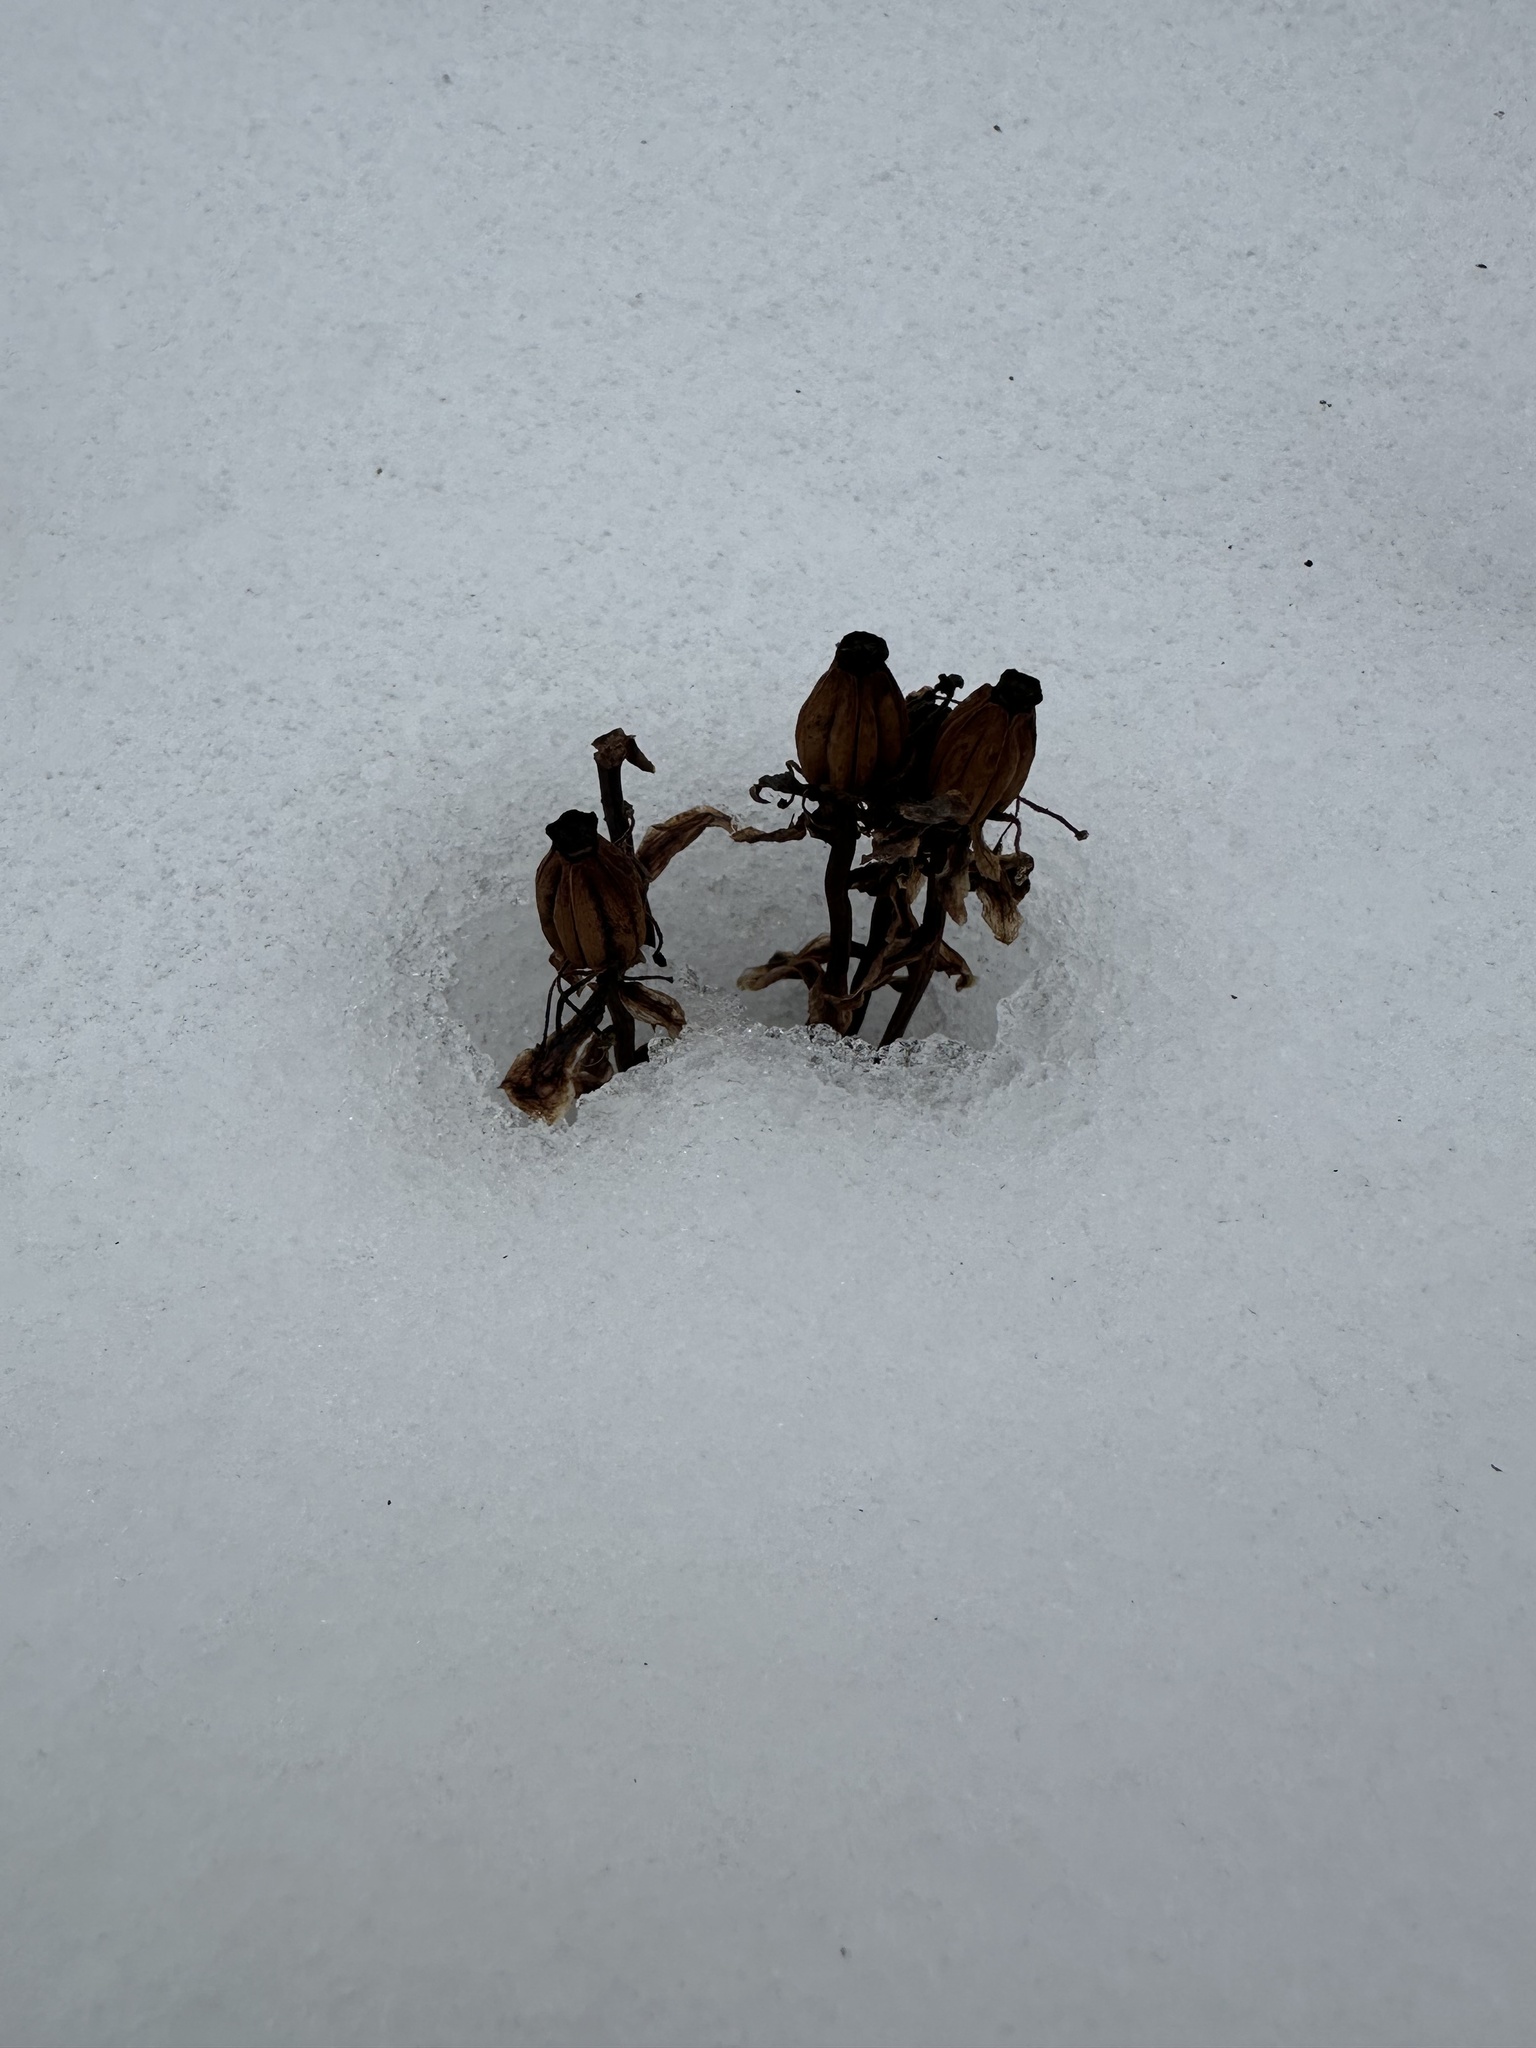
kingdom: Plantae
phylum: Tracheophyta
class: Magnoliopsida
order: Ericales
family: Ericaceae
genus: Monotropa
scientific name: Monotropa uniflora
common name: Convulsion root
